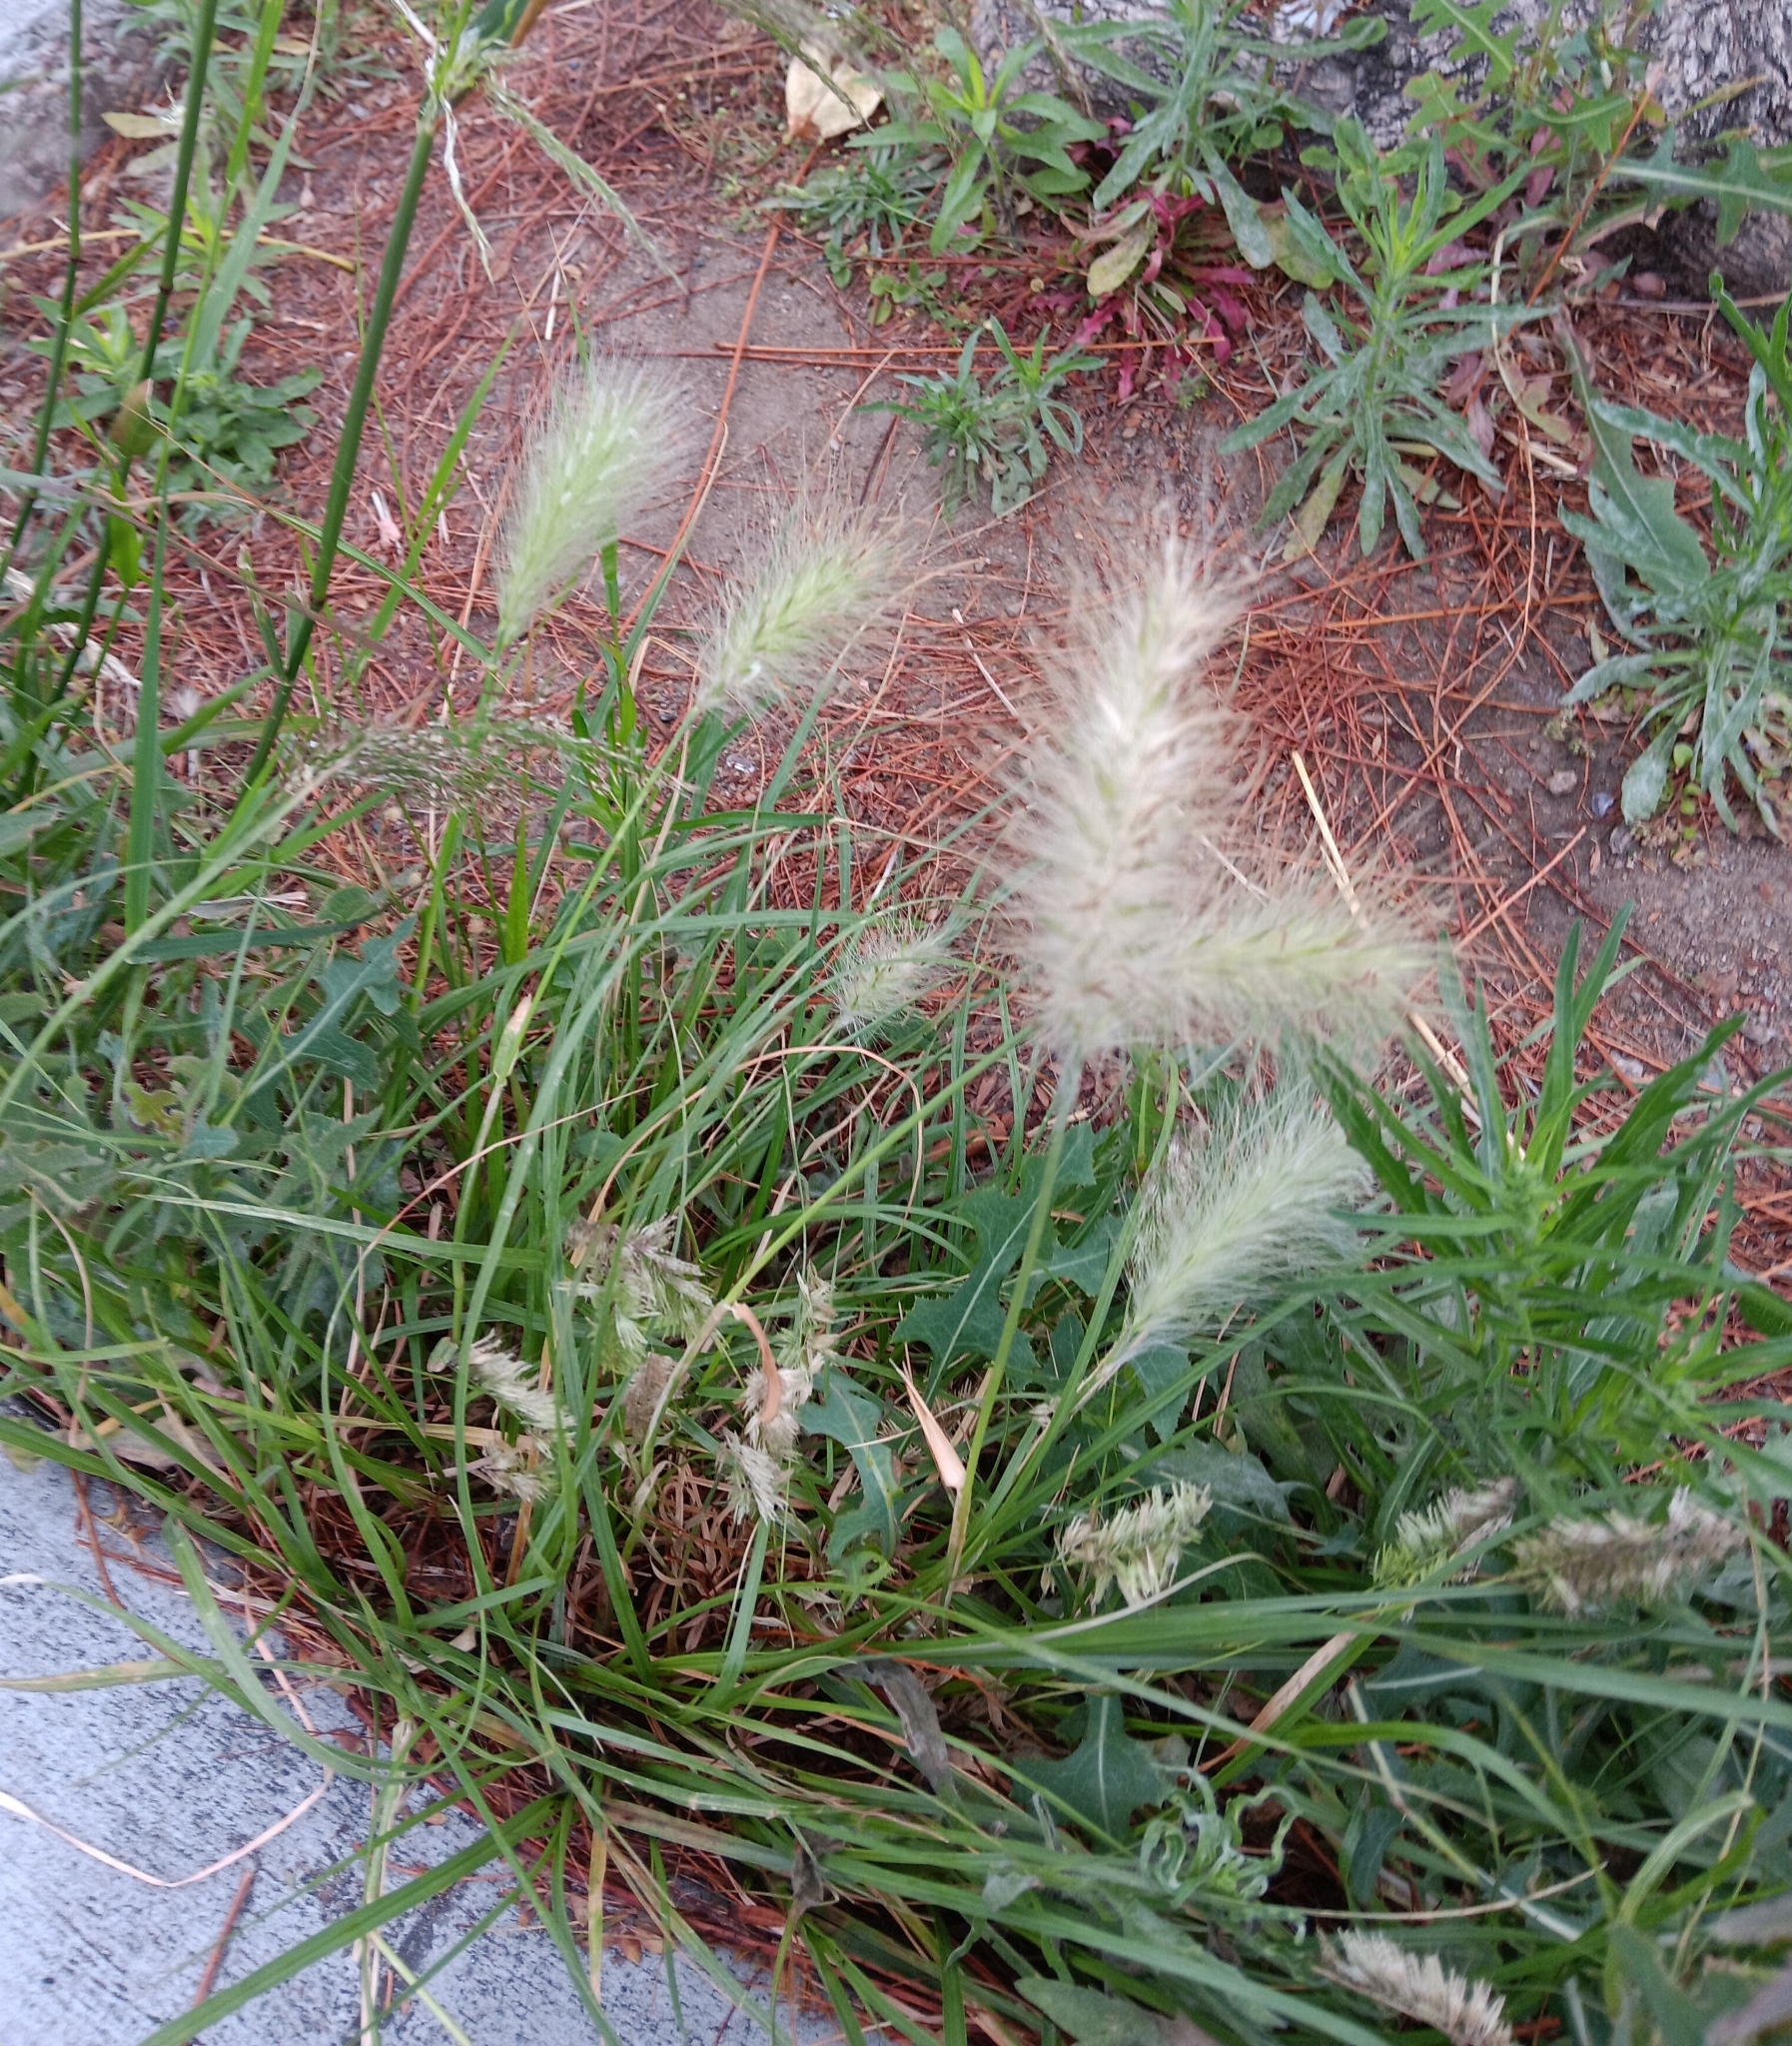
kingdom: Plantae
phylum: Tracheophyta
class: Liliopsida
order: Poales
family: Poaceae
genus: Cenchrus
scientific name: Cenchrus longisetus
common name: Feathertop
